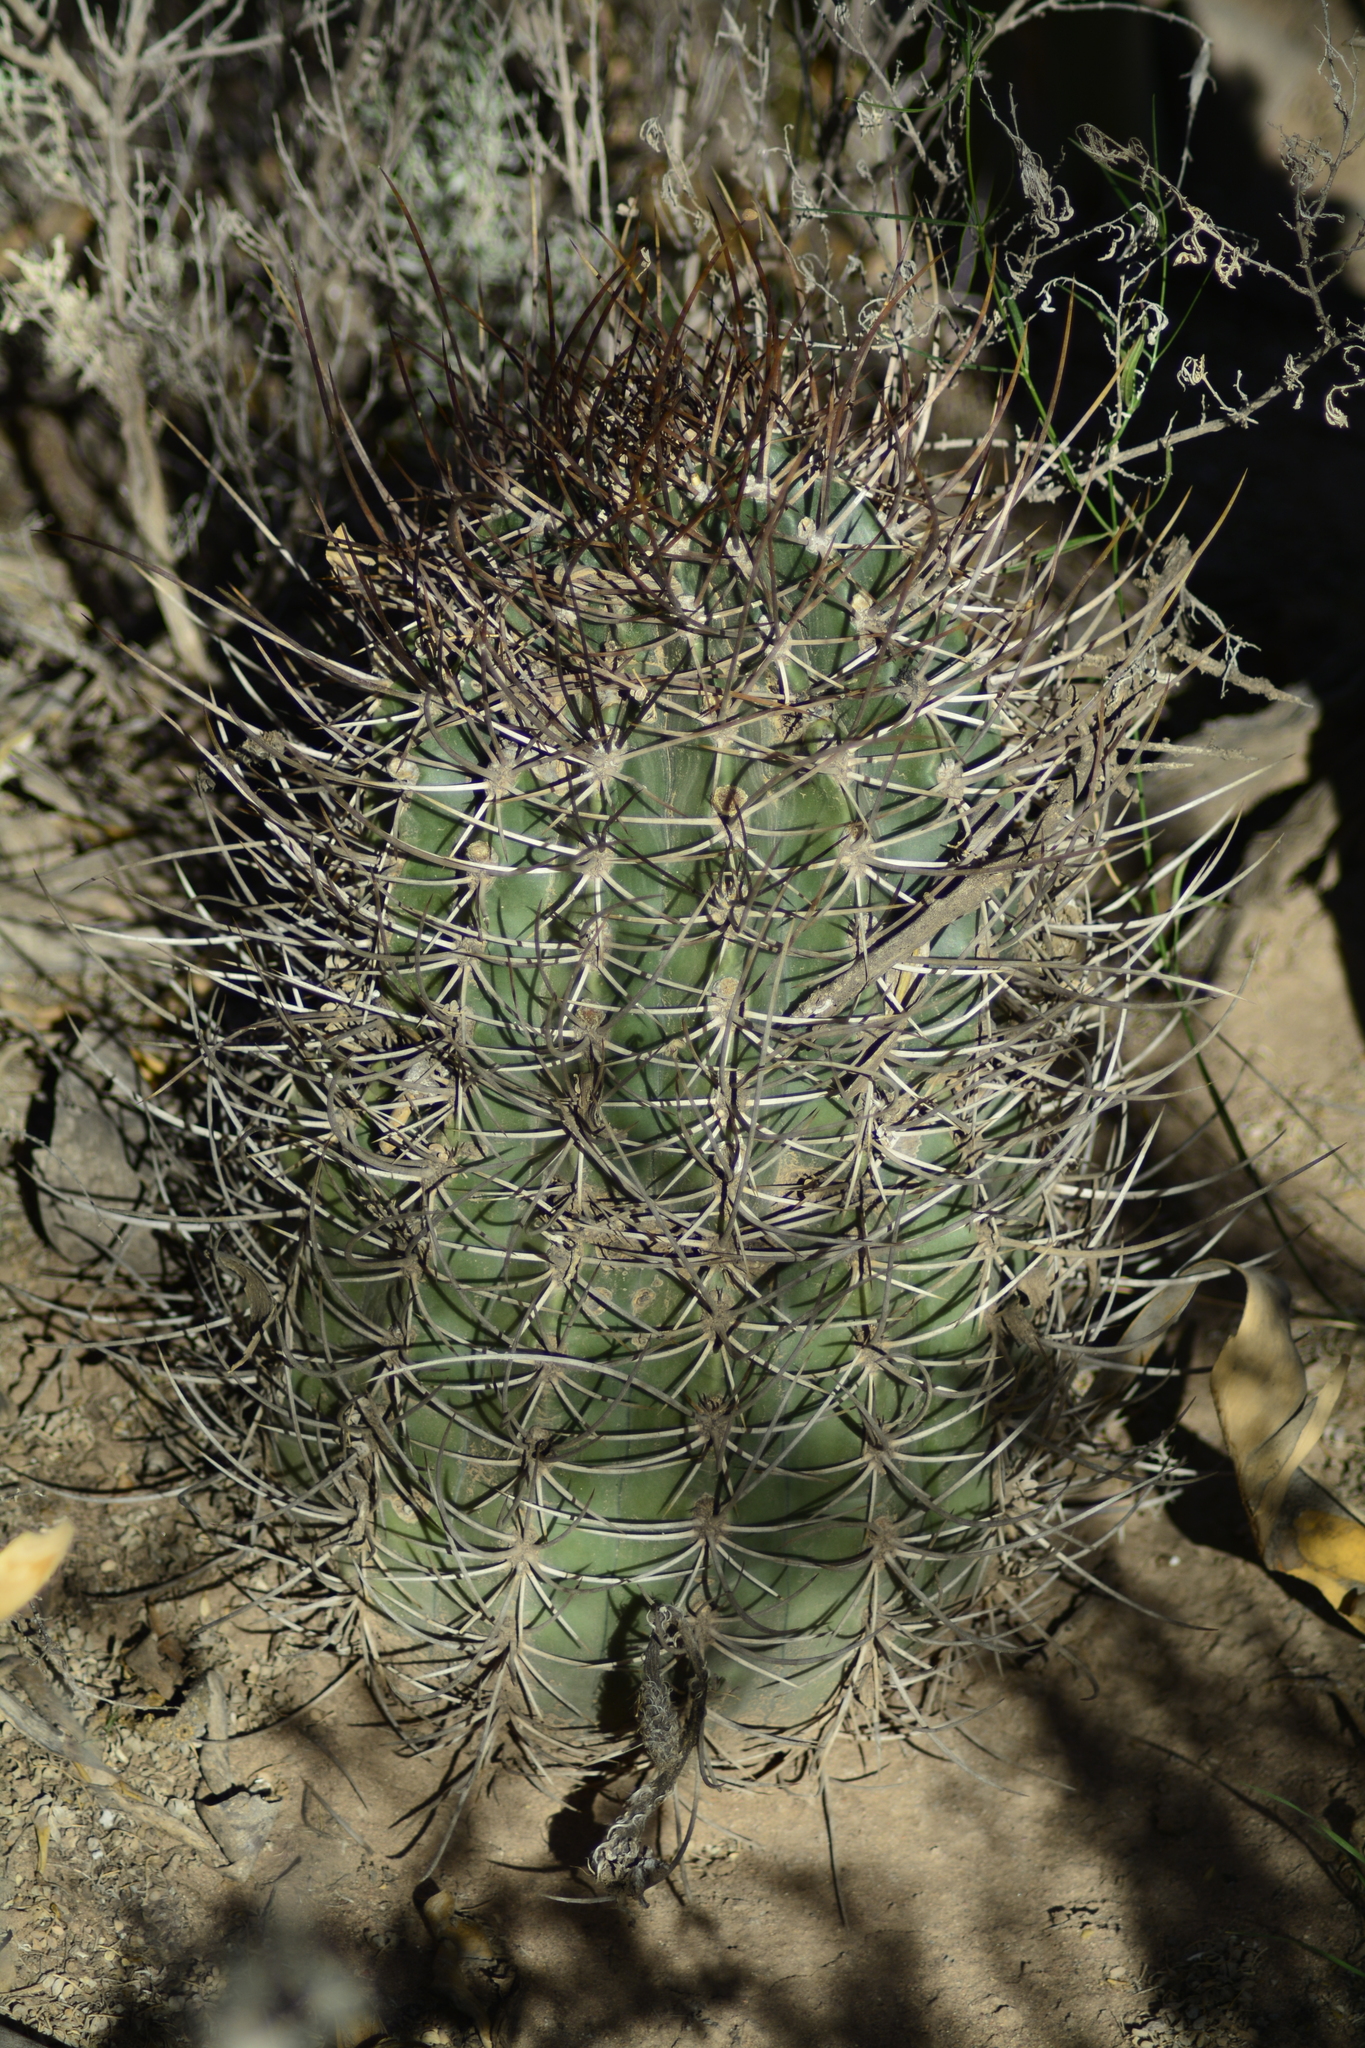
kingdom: Plantae
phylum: Tracheophyta
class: Magnoliopsida
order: Caryophyllales
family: Cactaceae
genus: Acanthocalycium
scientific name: Acanthocalycium leucanthum
